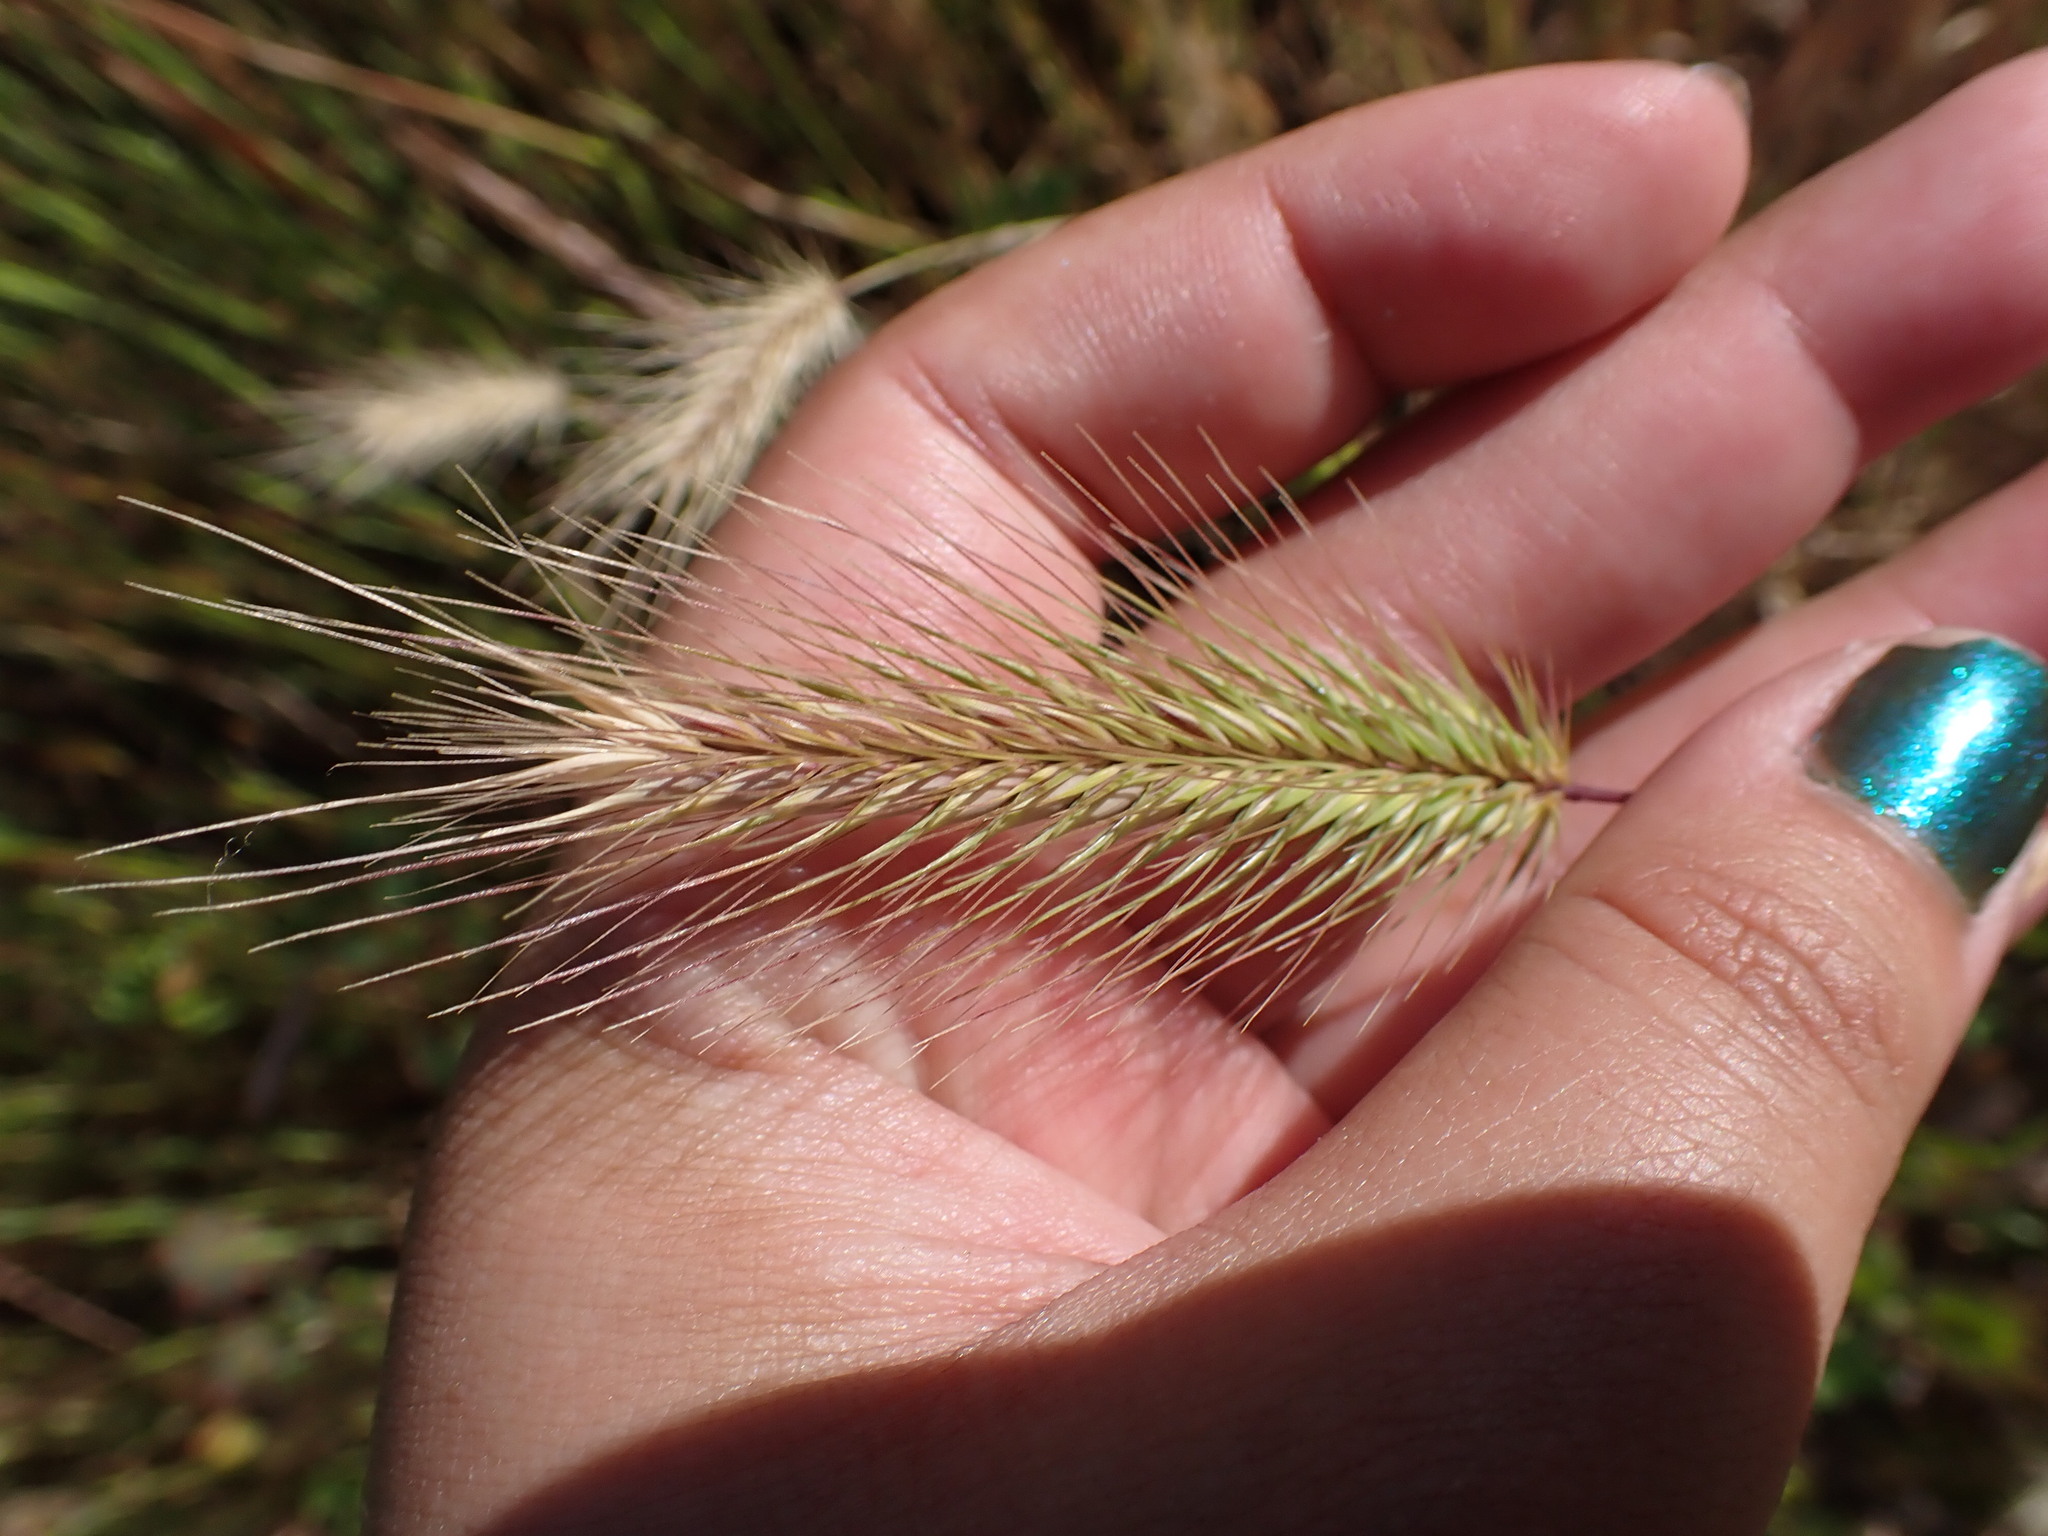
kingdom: Plantae
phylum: Tracheophyta
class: Liliopsida
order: Poales
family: Poaceae
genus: Hordeum
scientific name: Hordeum
